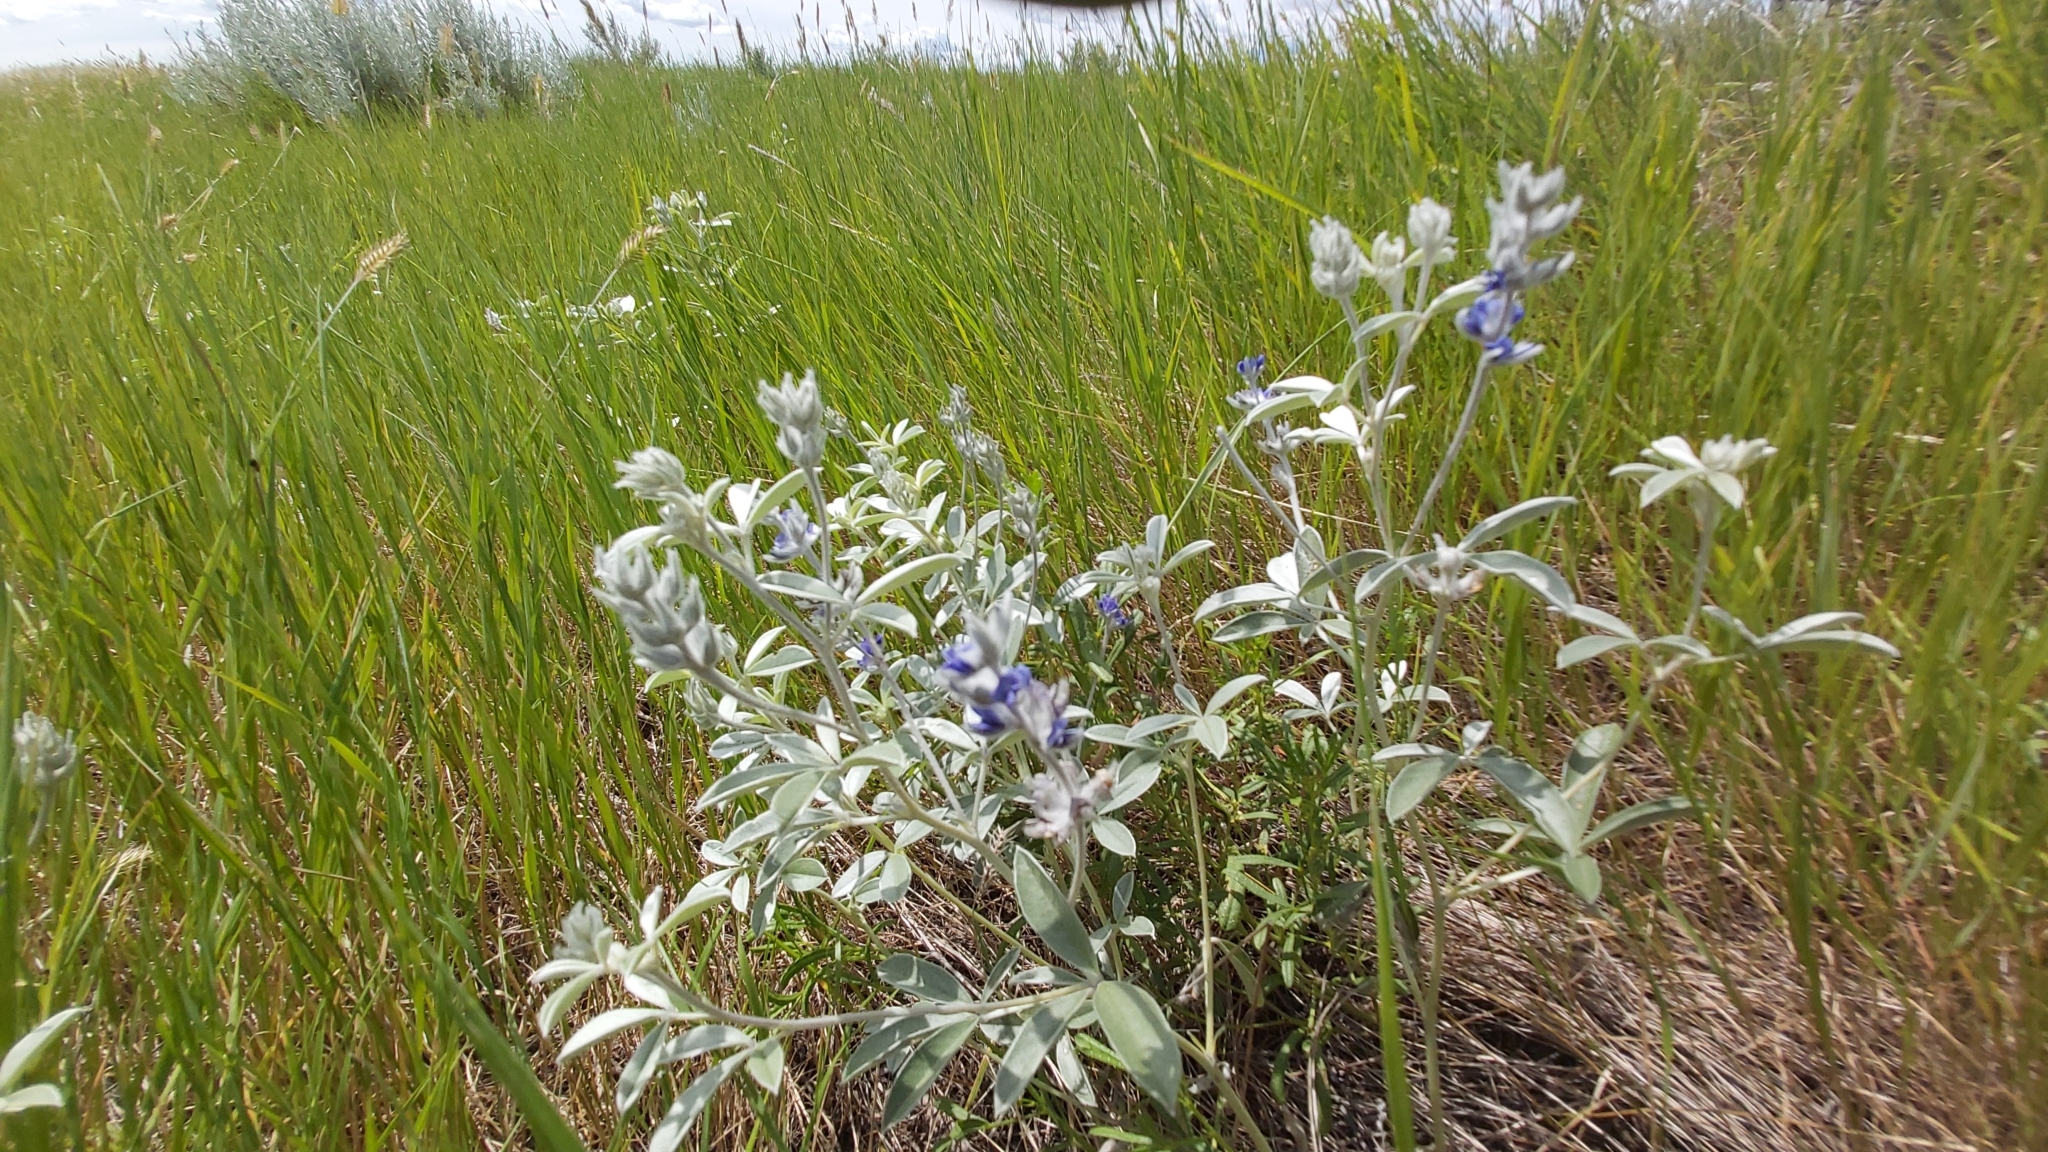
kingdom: Plantae
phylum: Tracheophyta
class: Magnoliopsida
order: Fabales
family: Fabaceae
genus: Pediomelum
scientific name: Pediomelum argophyllum
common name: Silver-leaved indian breadroot
